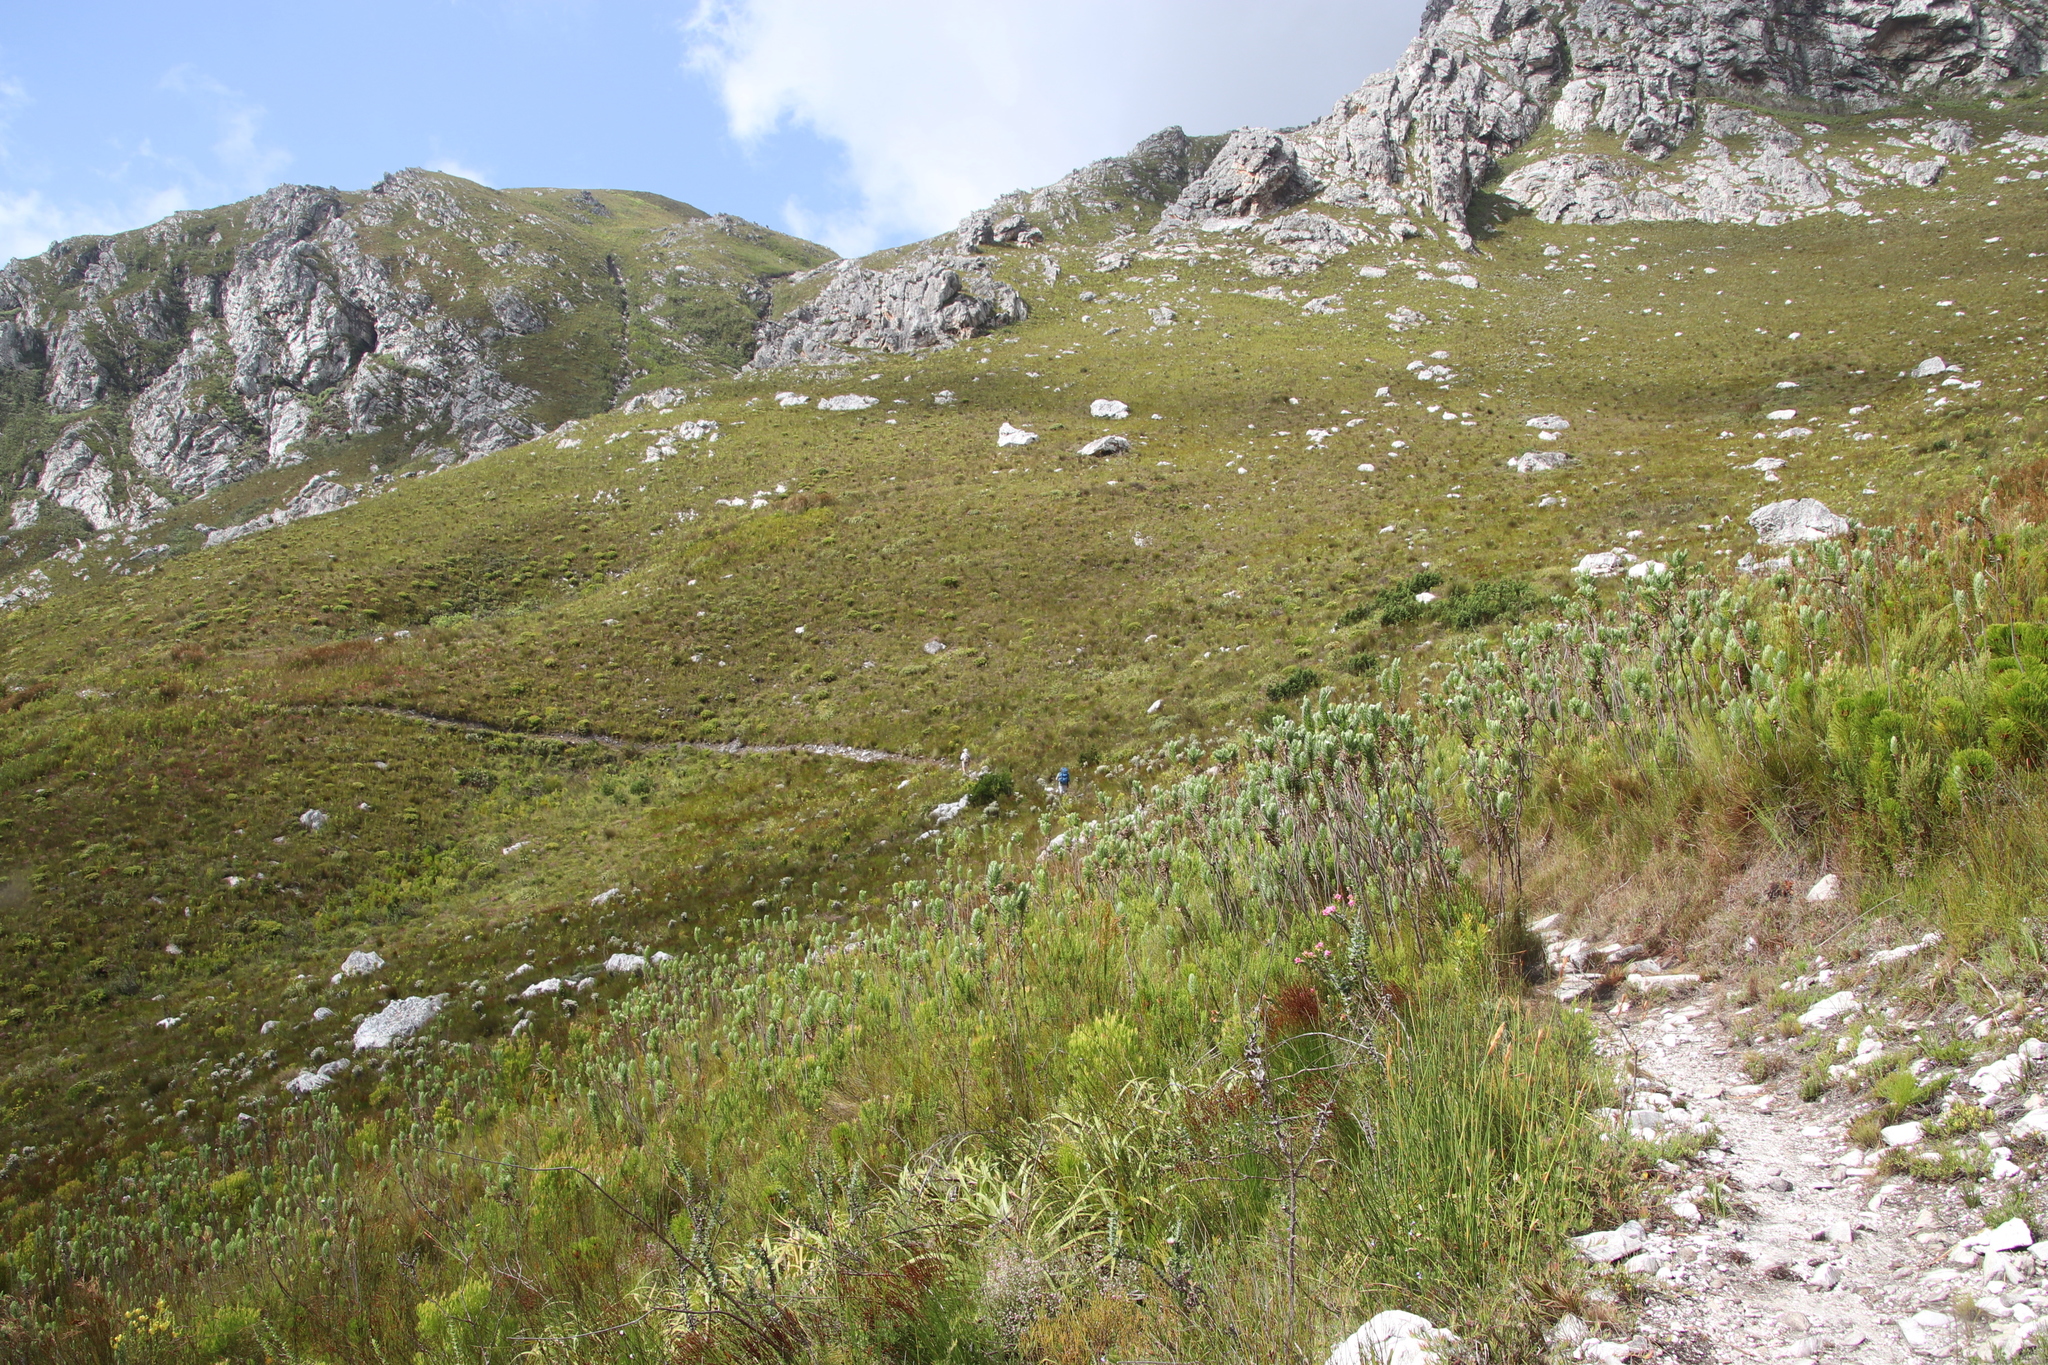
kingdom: Plantae
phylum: Tracheophyta
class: Magnoliopsida
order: Asterales
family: Asteraceae
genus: Osmitopsis
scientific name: Osmitopsis asteriscoides
